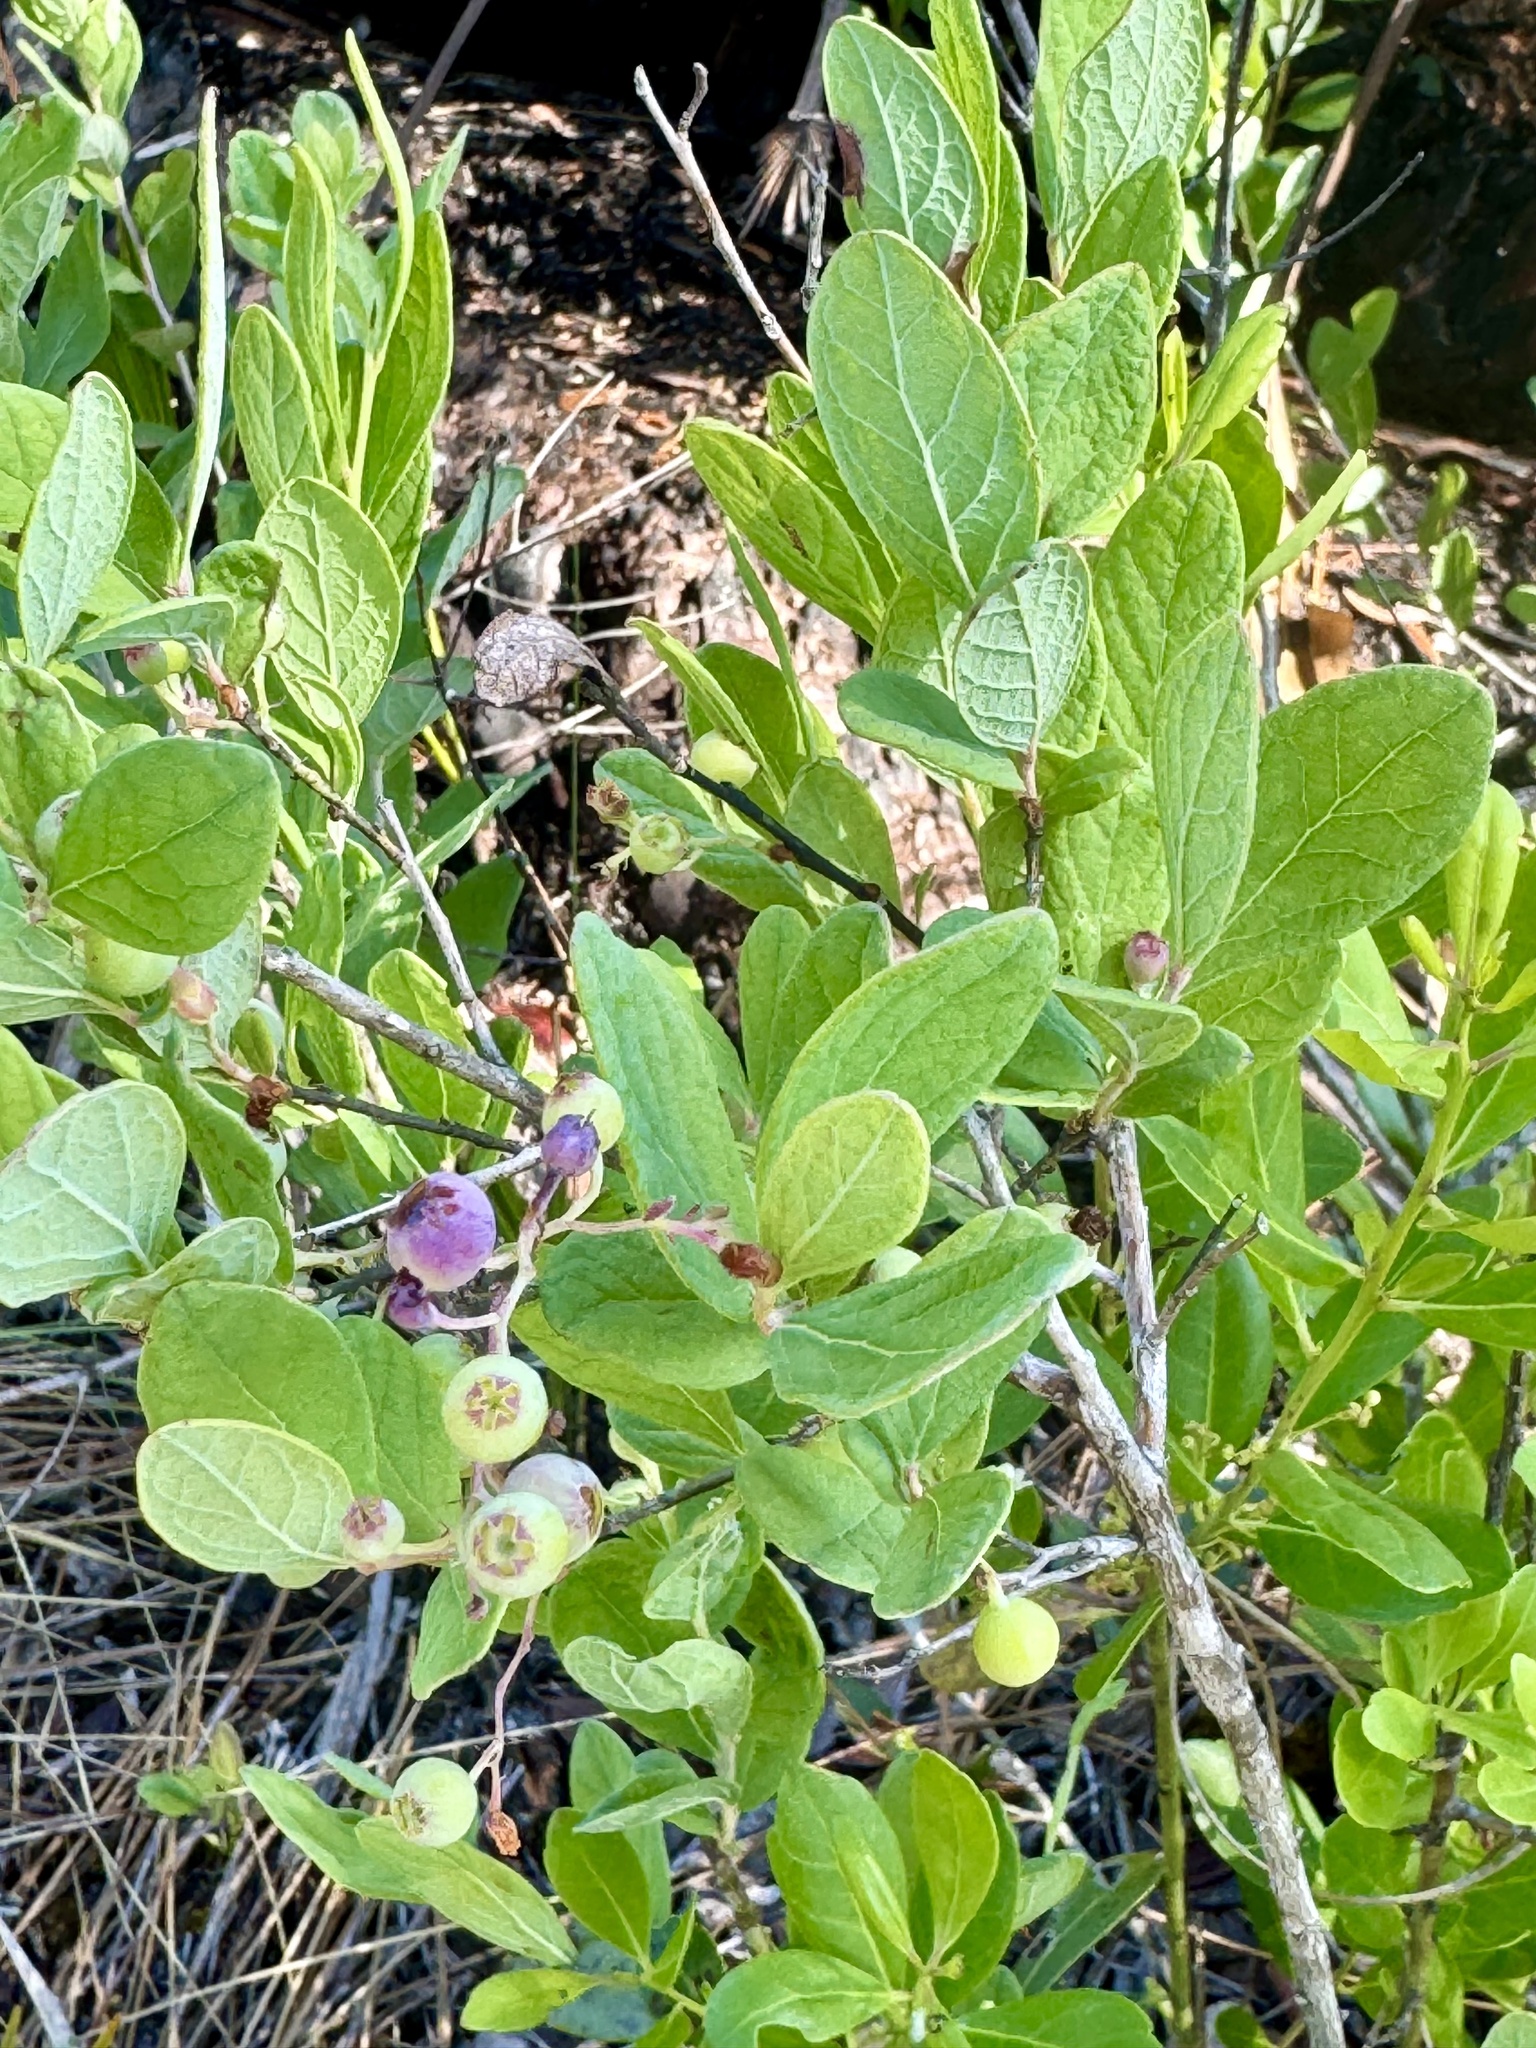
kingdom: Plantae
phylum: Tracheophyta
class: Magnoliopsida
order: Ericales
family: Ericaceae
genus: Gaylussacia
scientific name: Gaylussacia nana
